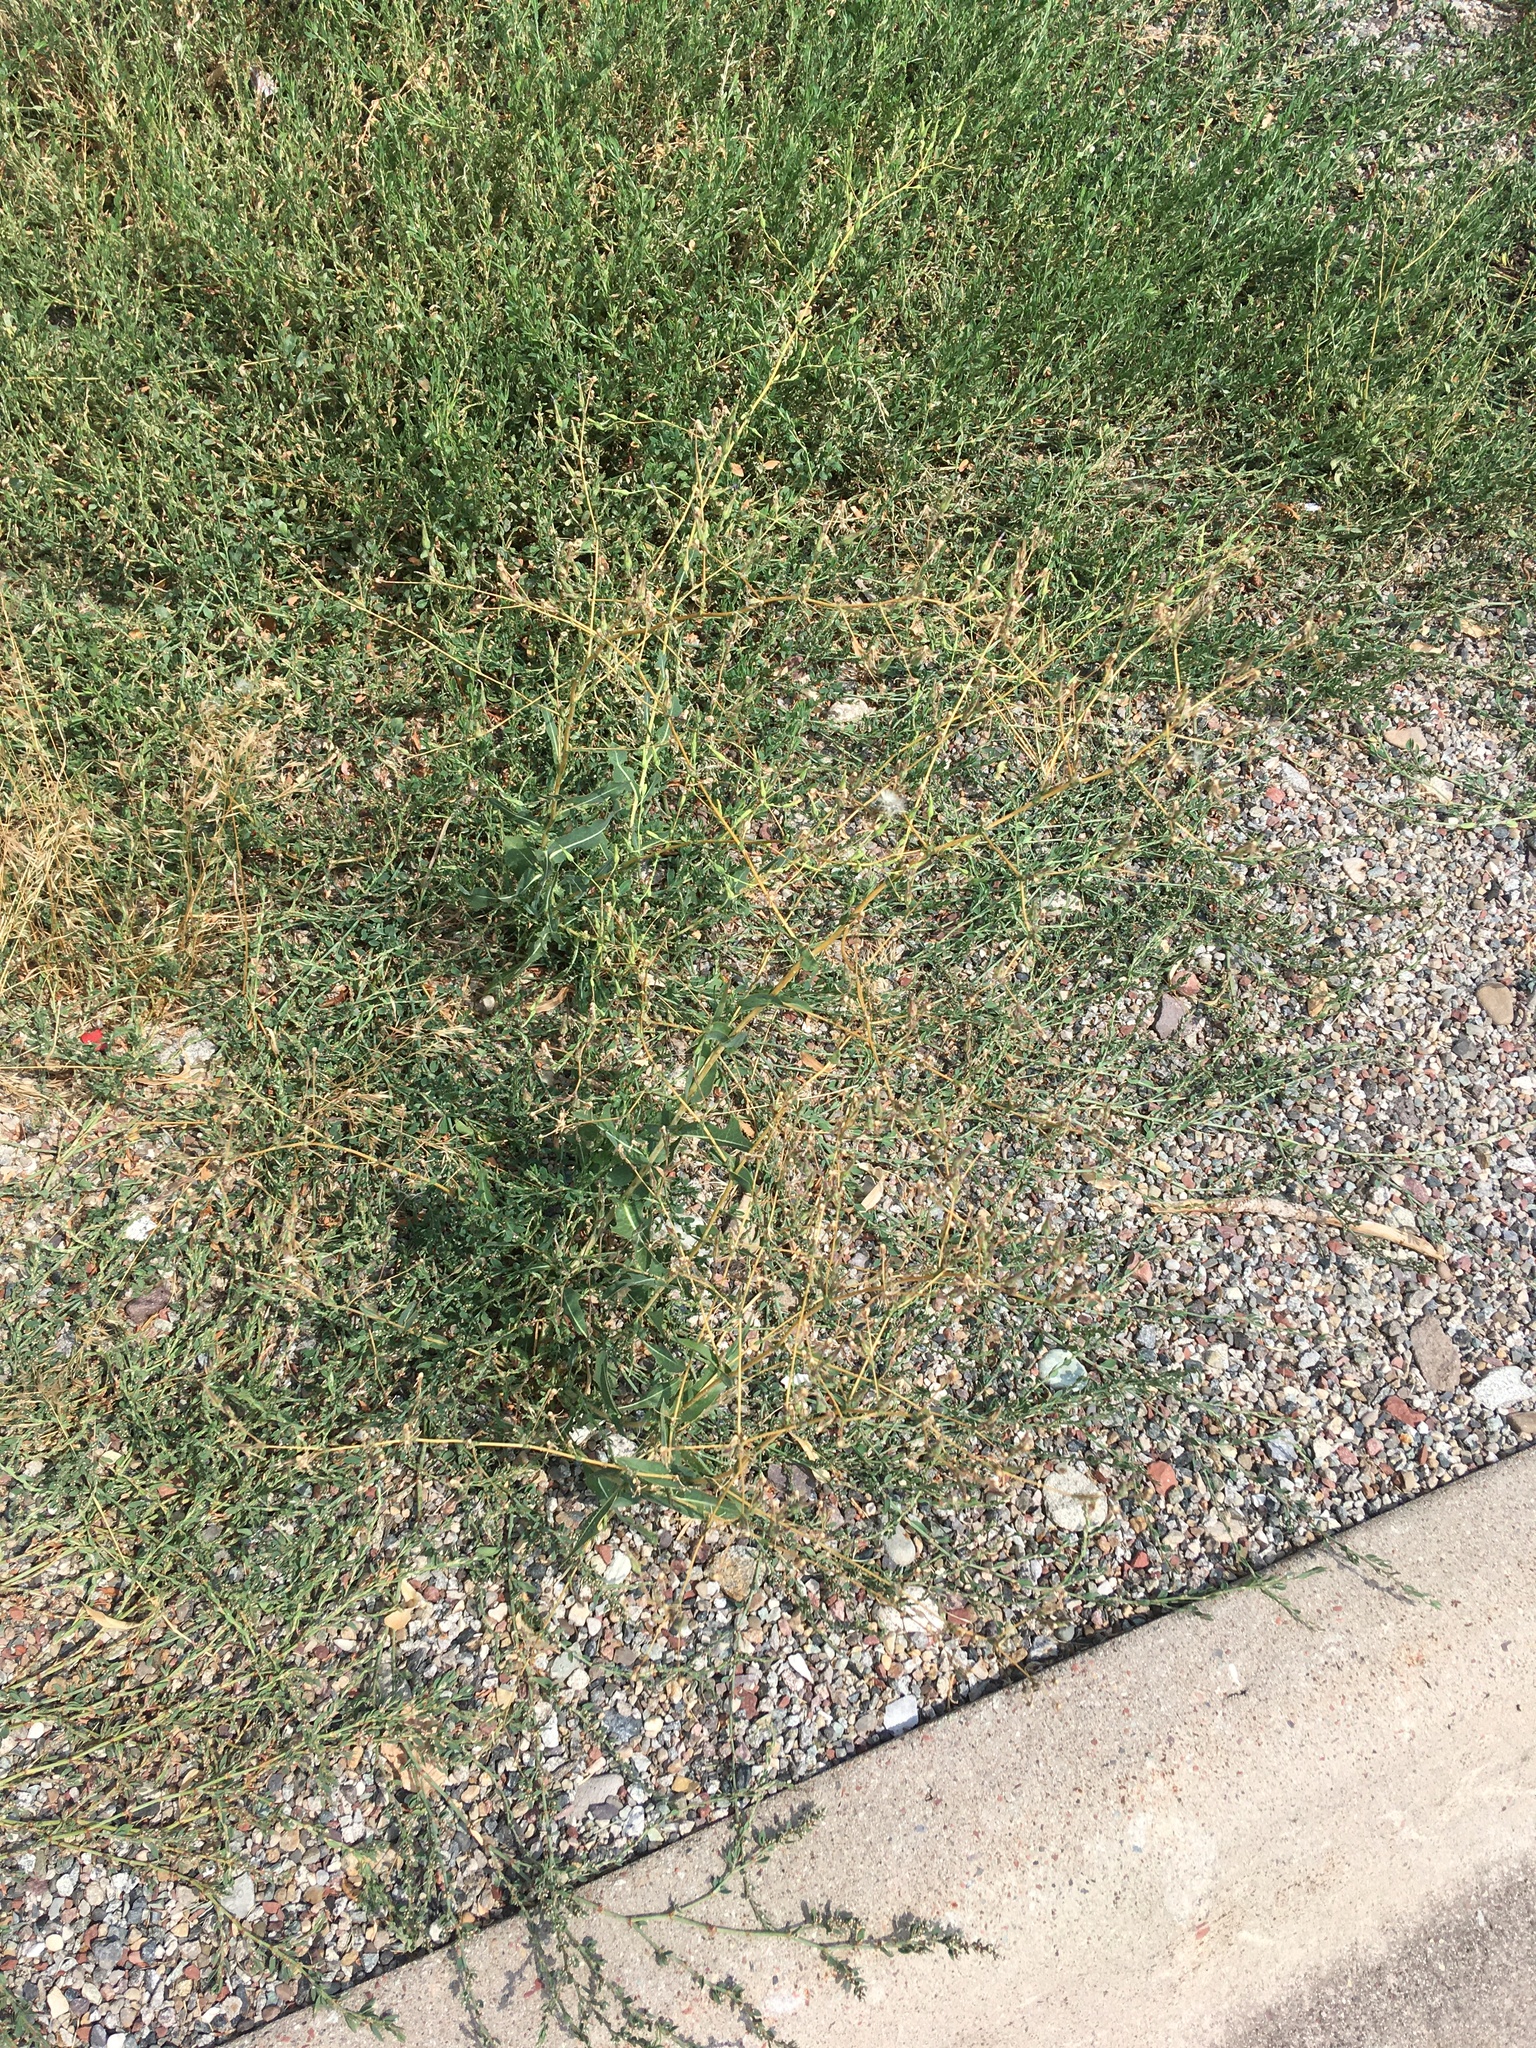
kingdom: Plantae
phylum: Tracheophyta
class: Magnoliopsida
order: Asterales
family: Asteraceae
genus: Lactuca
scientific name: Lactuca serriola
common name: Prickly lettuce
